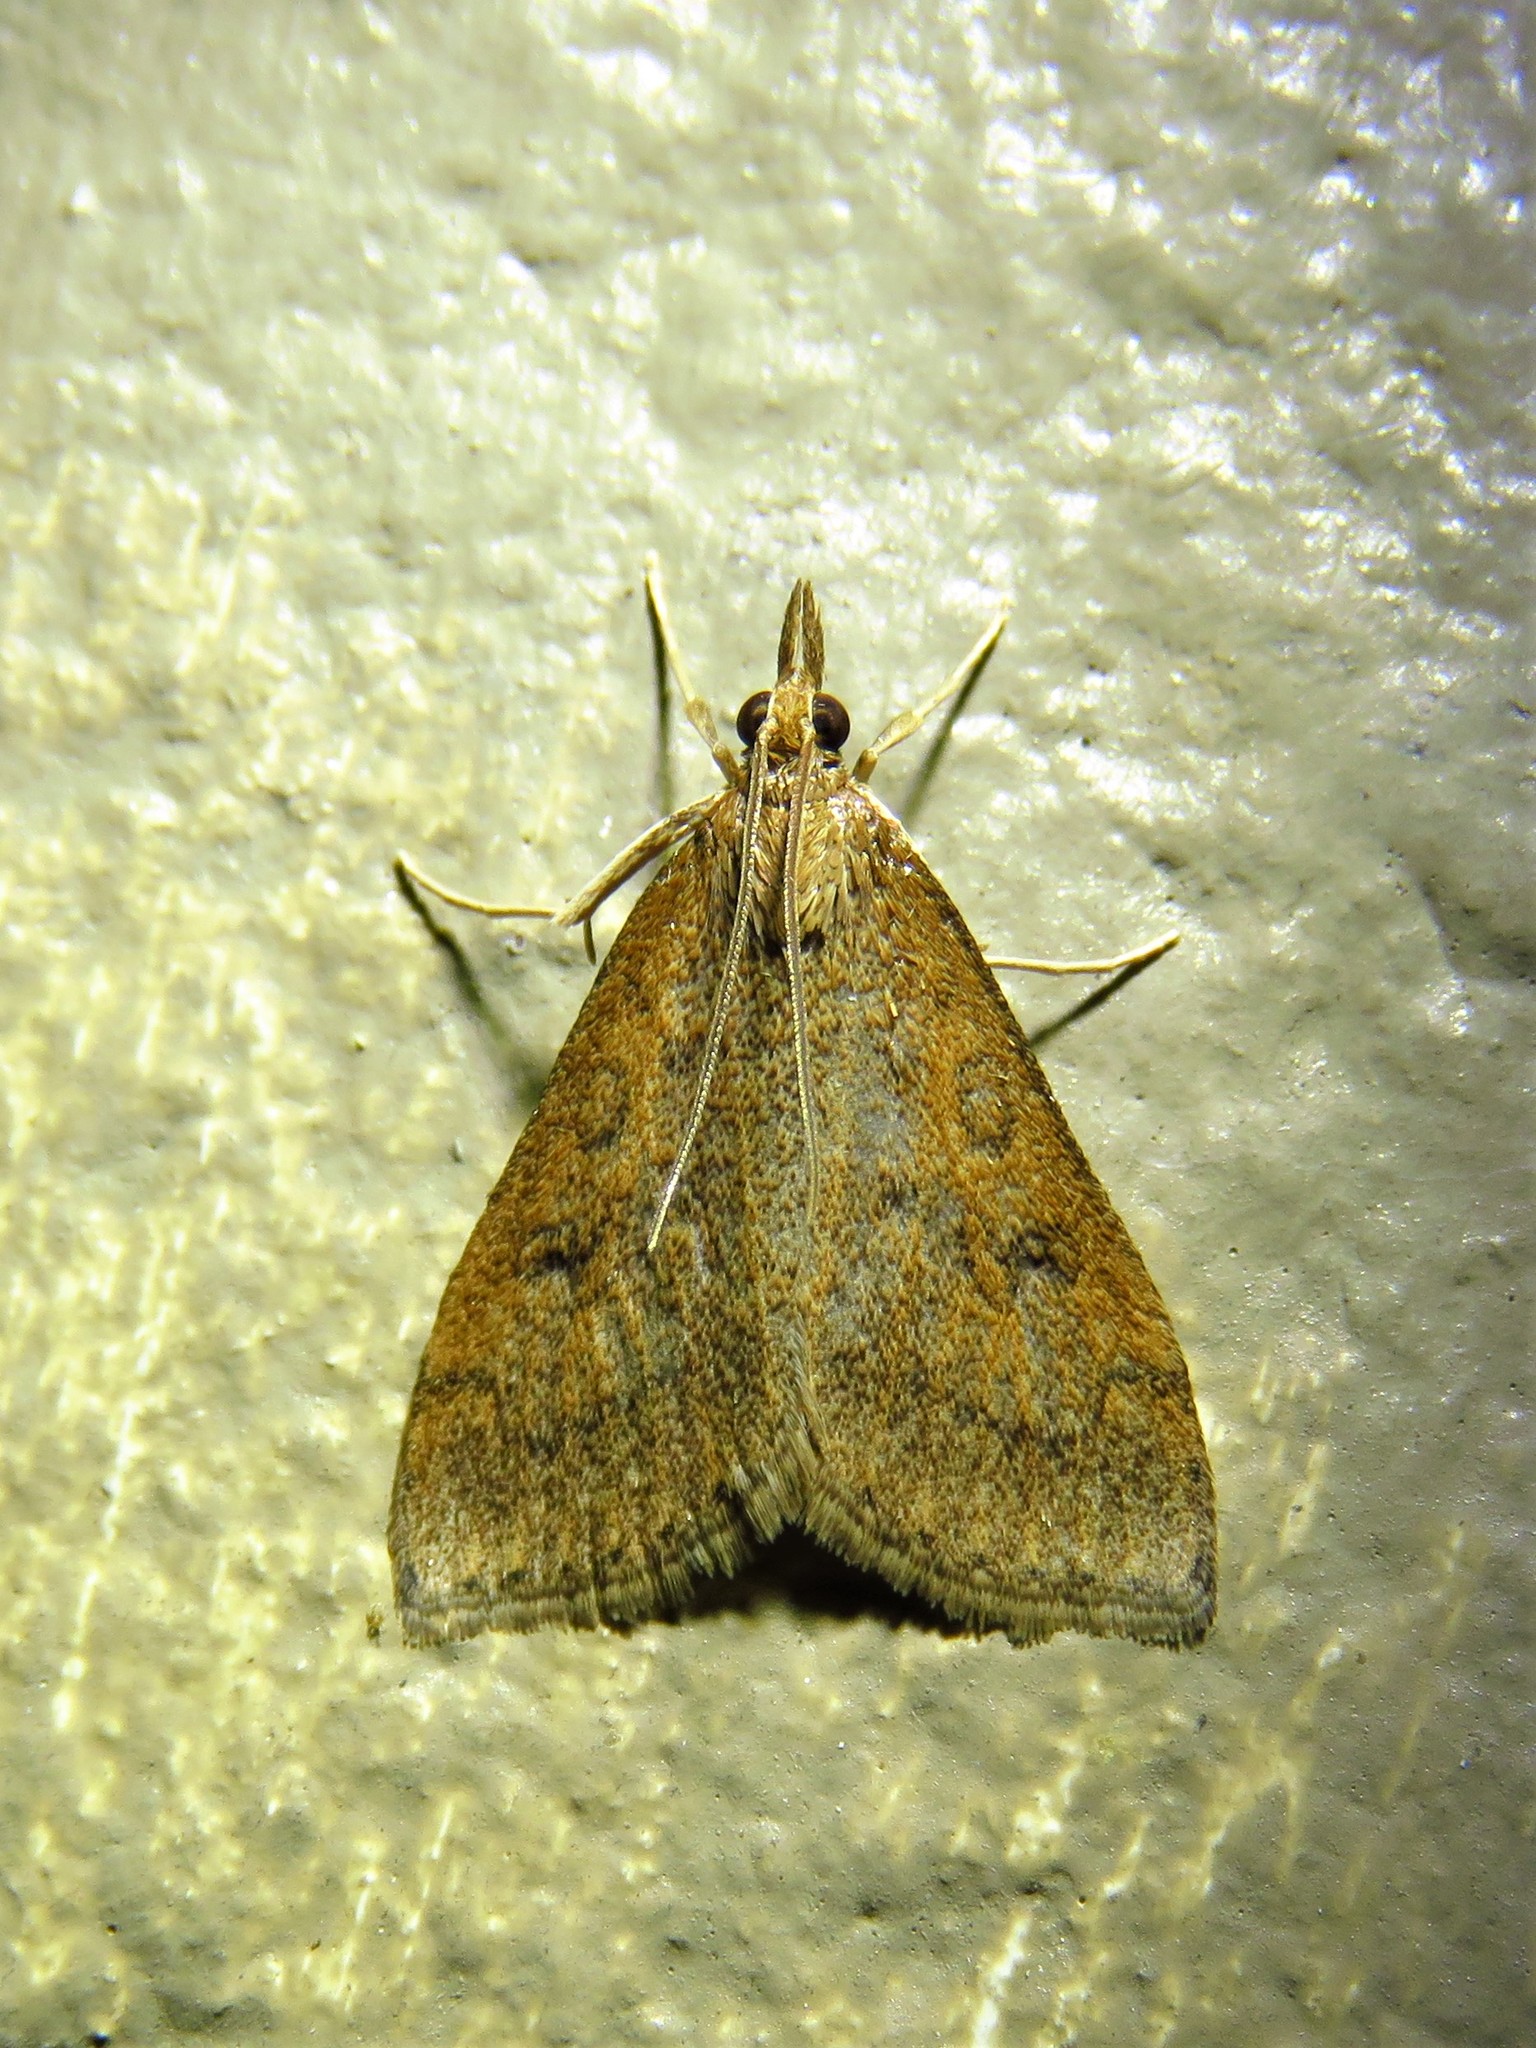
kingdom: Animalia
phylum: Arthropoda
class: Insecta
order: Lepidoptera
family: Crambidae
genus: Udea
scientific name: Udea rubigalis
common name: Celery leaftier moth
